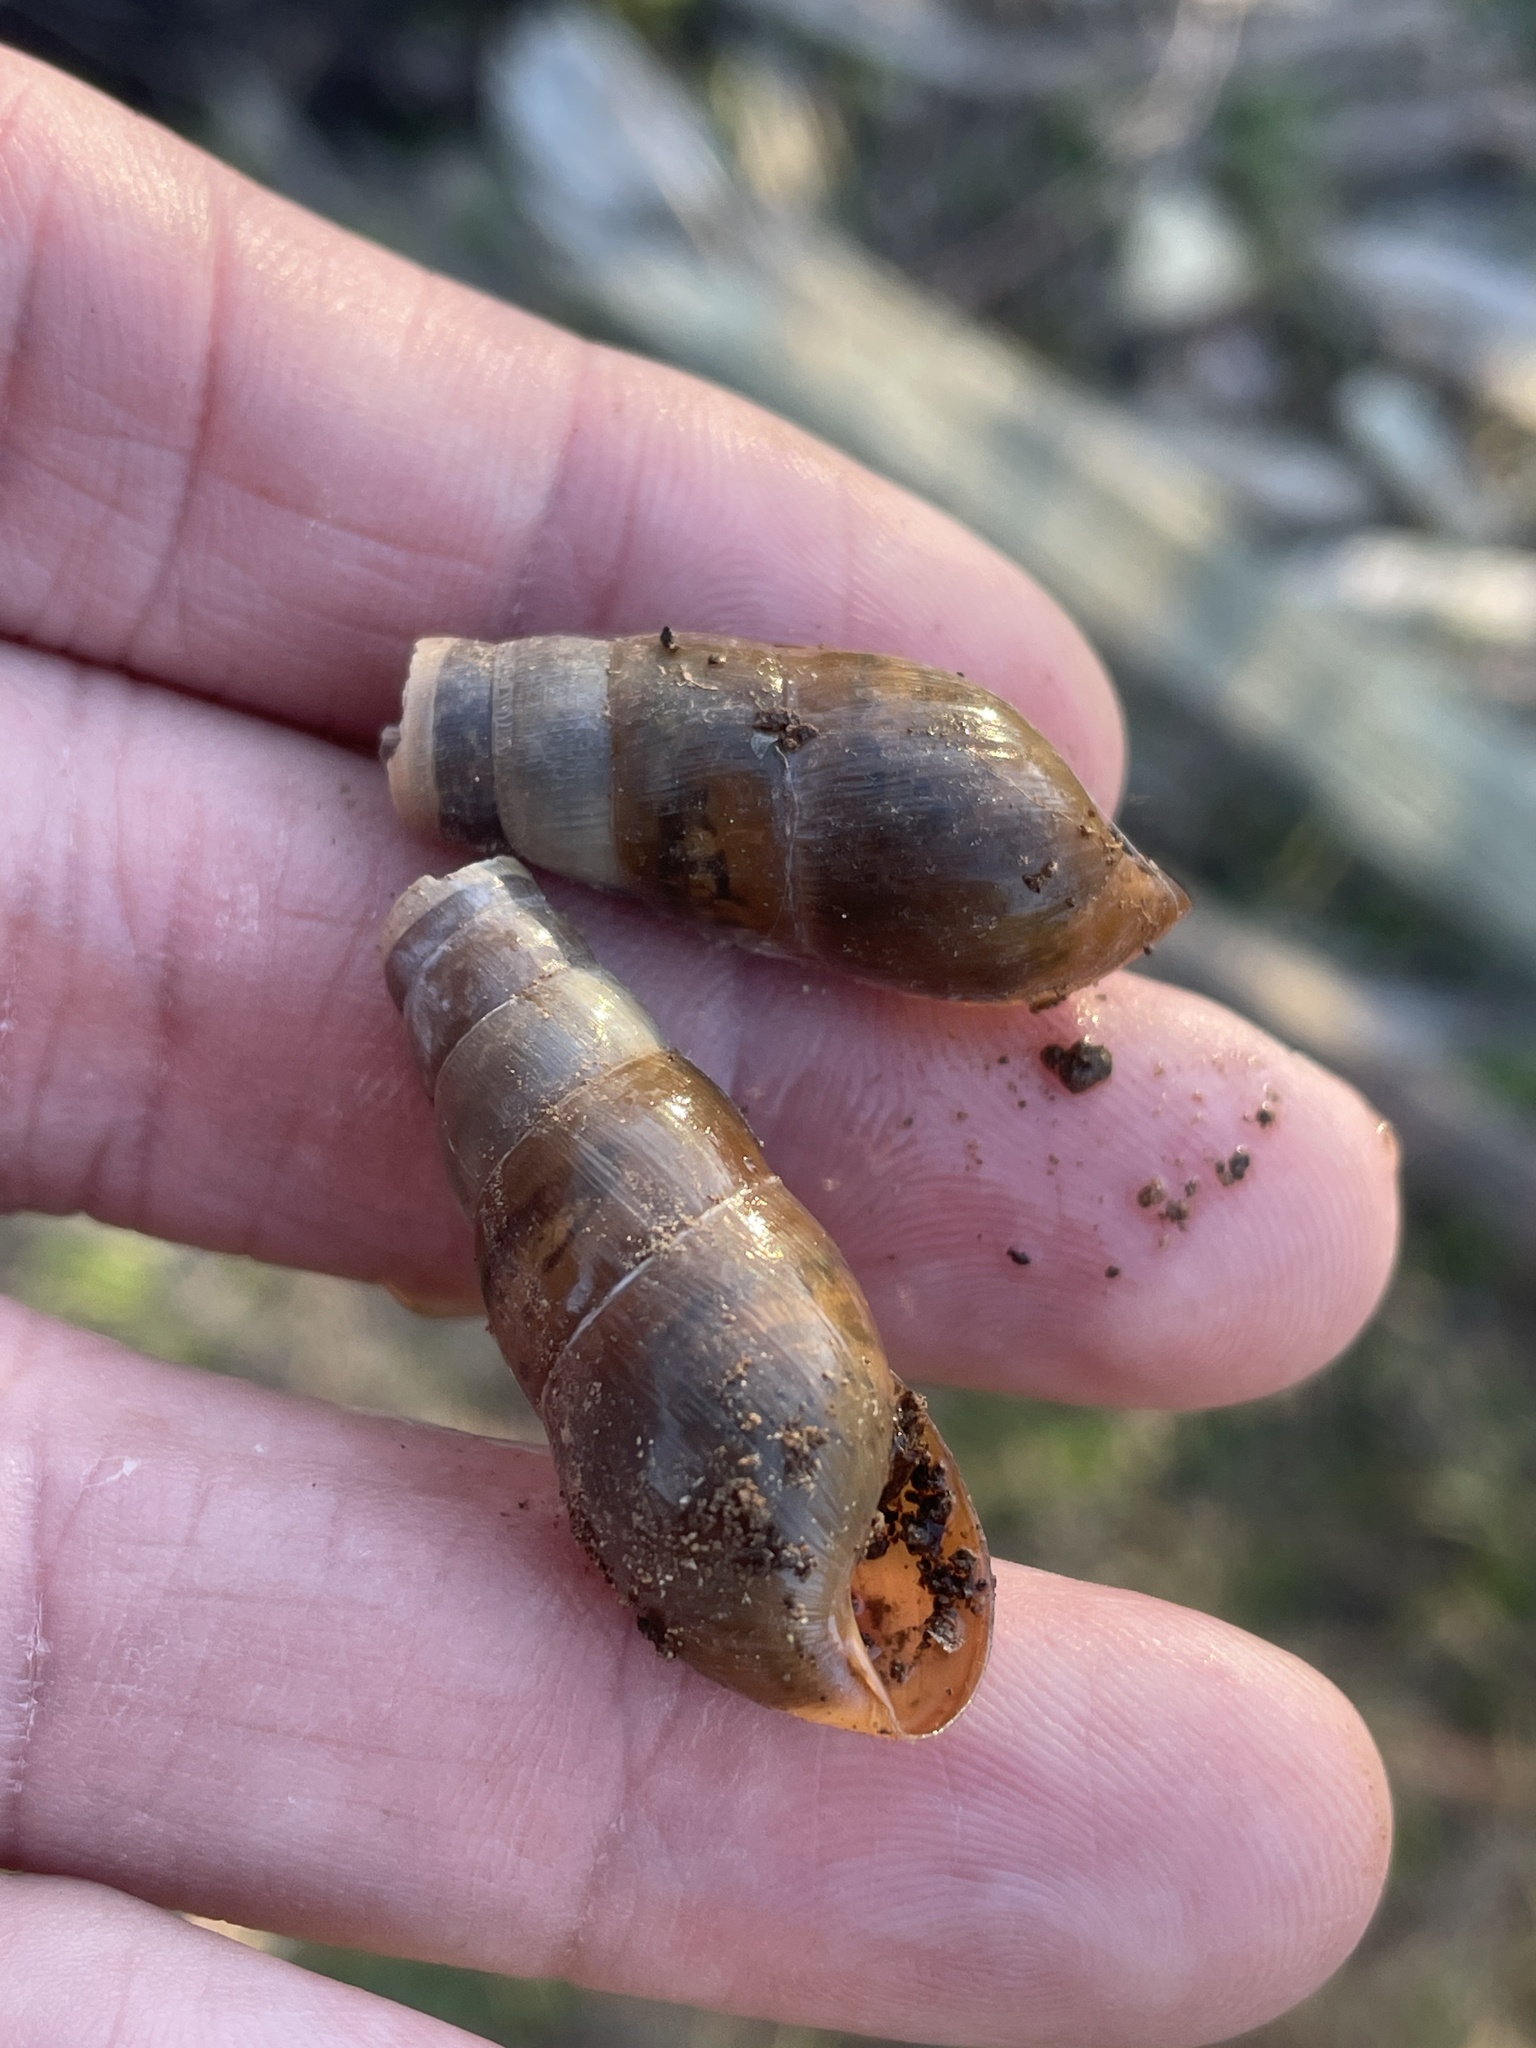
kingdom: Animalia
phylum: Mollusca
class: Gastropoda
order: Stylommatophora
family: Achatinidae
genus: Rumina
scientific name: Rumina decollata
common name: Decollate snail
